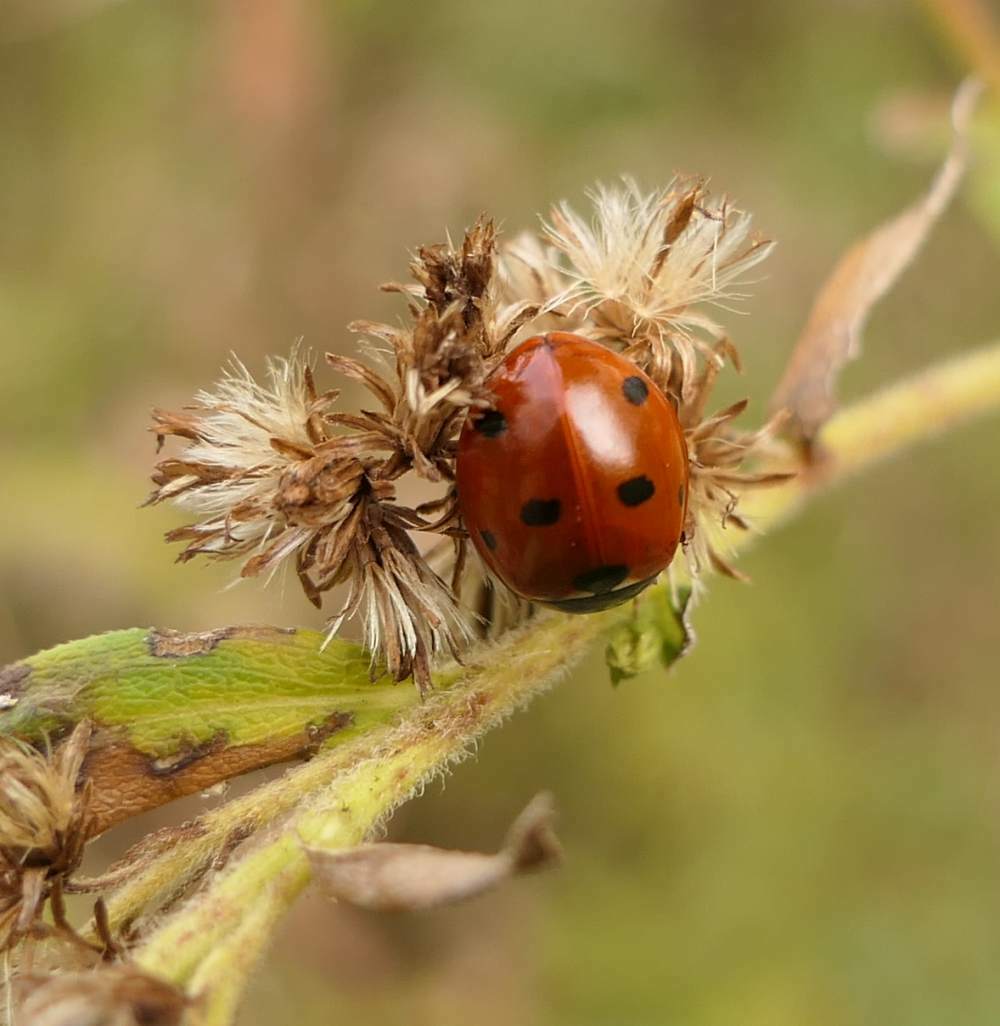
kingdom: Animalia
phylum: Arthropoda
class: Insecta
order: Coleoptera
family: Coccinellidae
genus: Coccinella
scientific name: Coccinella septempunctata
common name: Sevenspotted lady beetle
